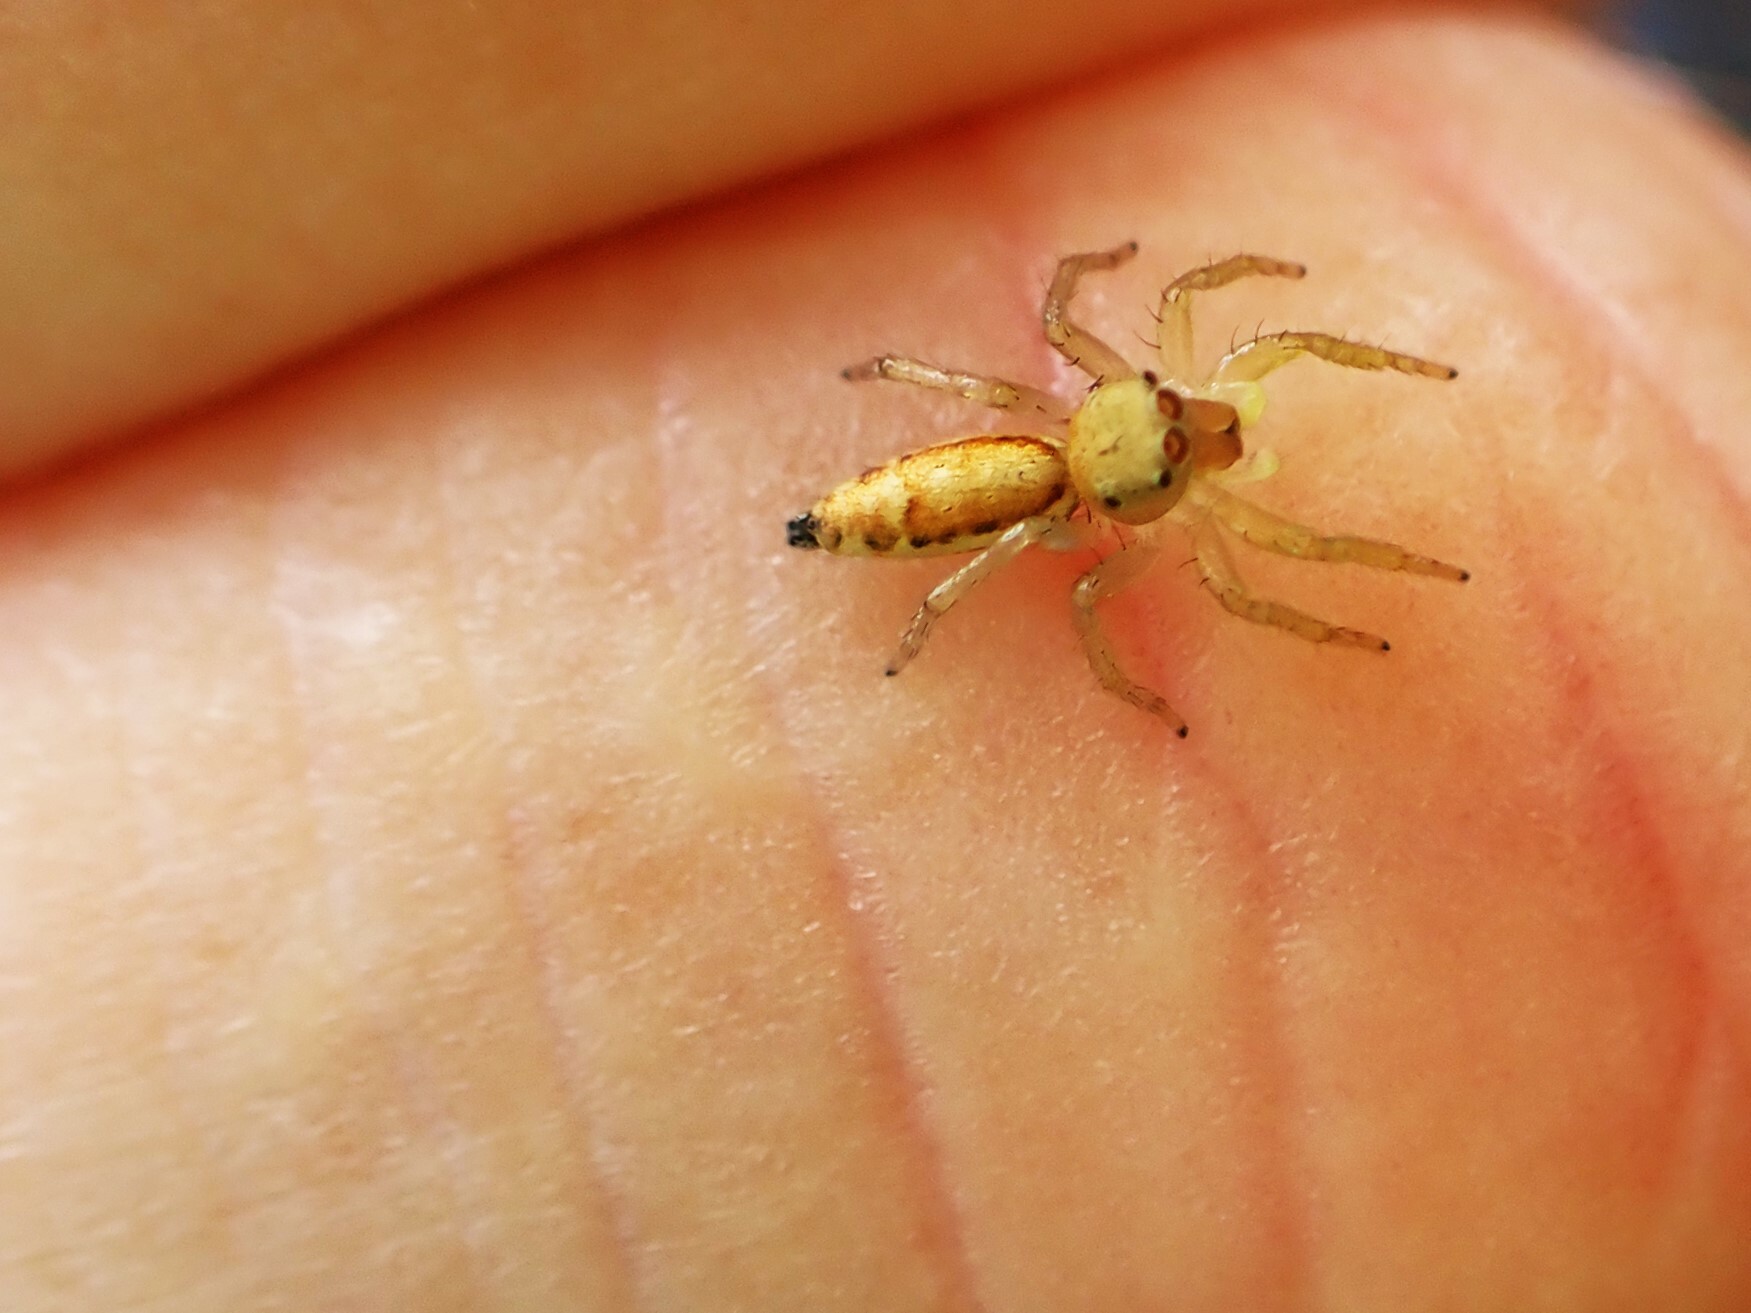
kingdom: Animalia
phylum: Arthropoda
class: Arachnida
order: Araneae
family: Salticidae
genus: Cosmophasis
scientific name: Cosmophasis lami
